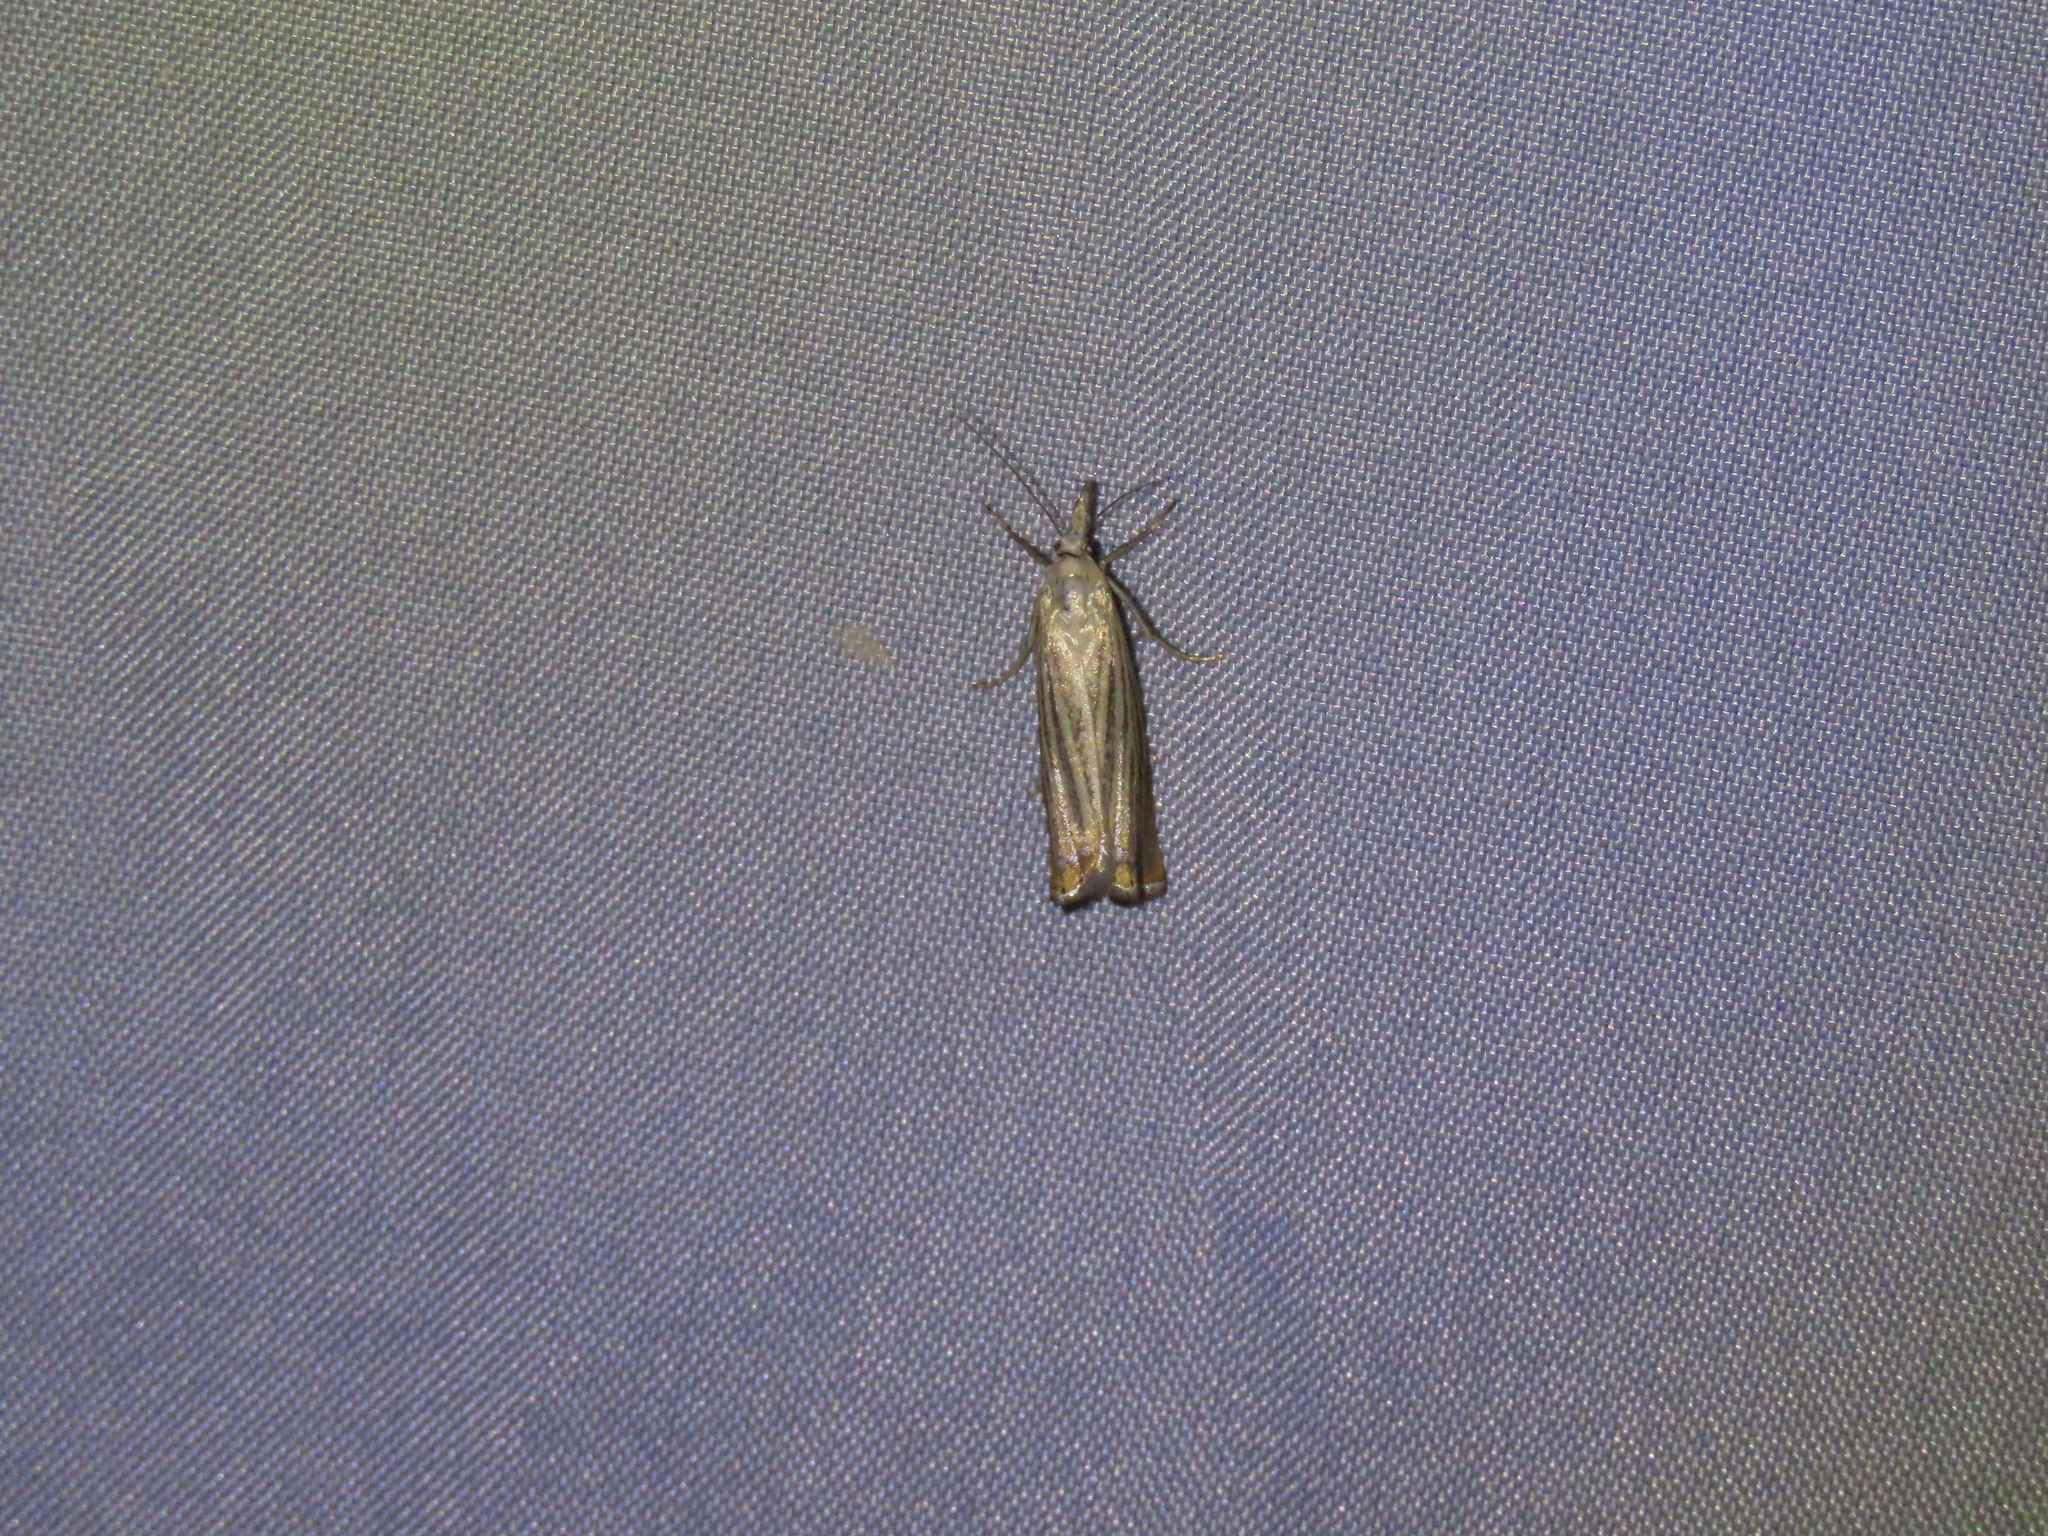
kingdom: Animalia
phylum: Arthropoda
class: Insecta
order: Lepidoptera
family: Crambidae
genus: Chrysoteuchia
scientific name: Chrysoteuchia culmella
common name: Garden grass-veneer
